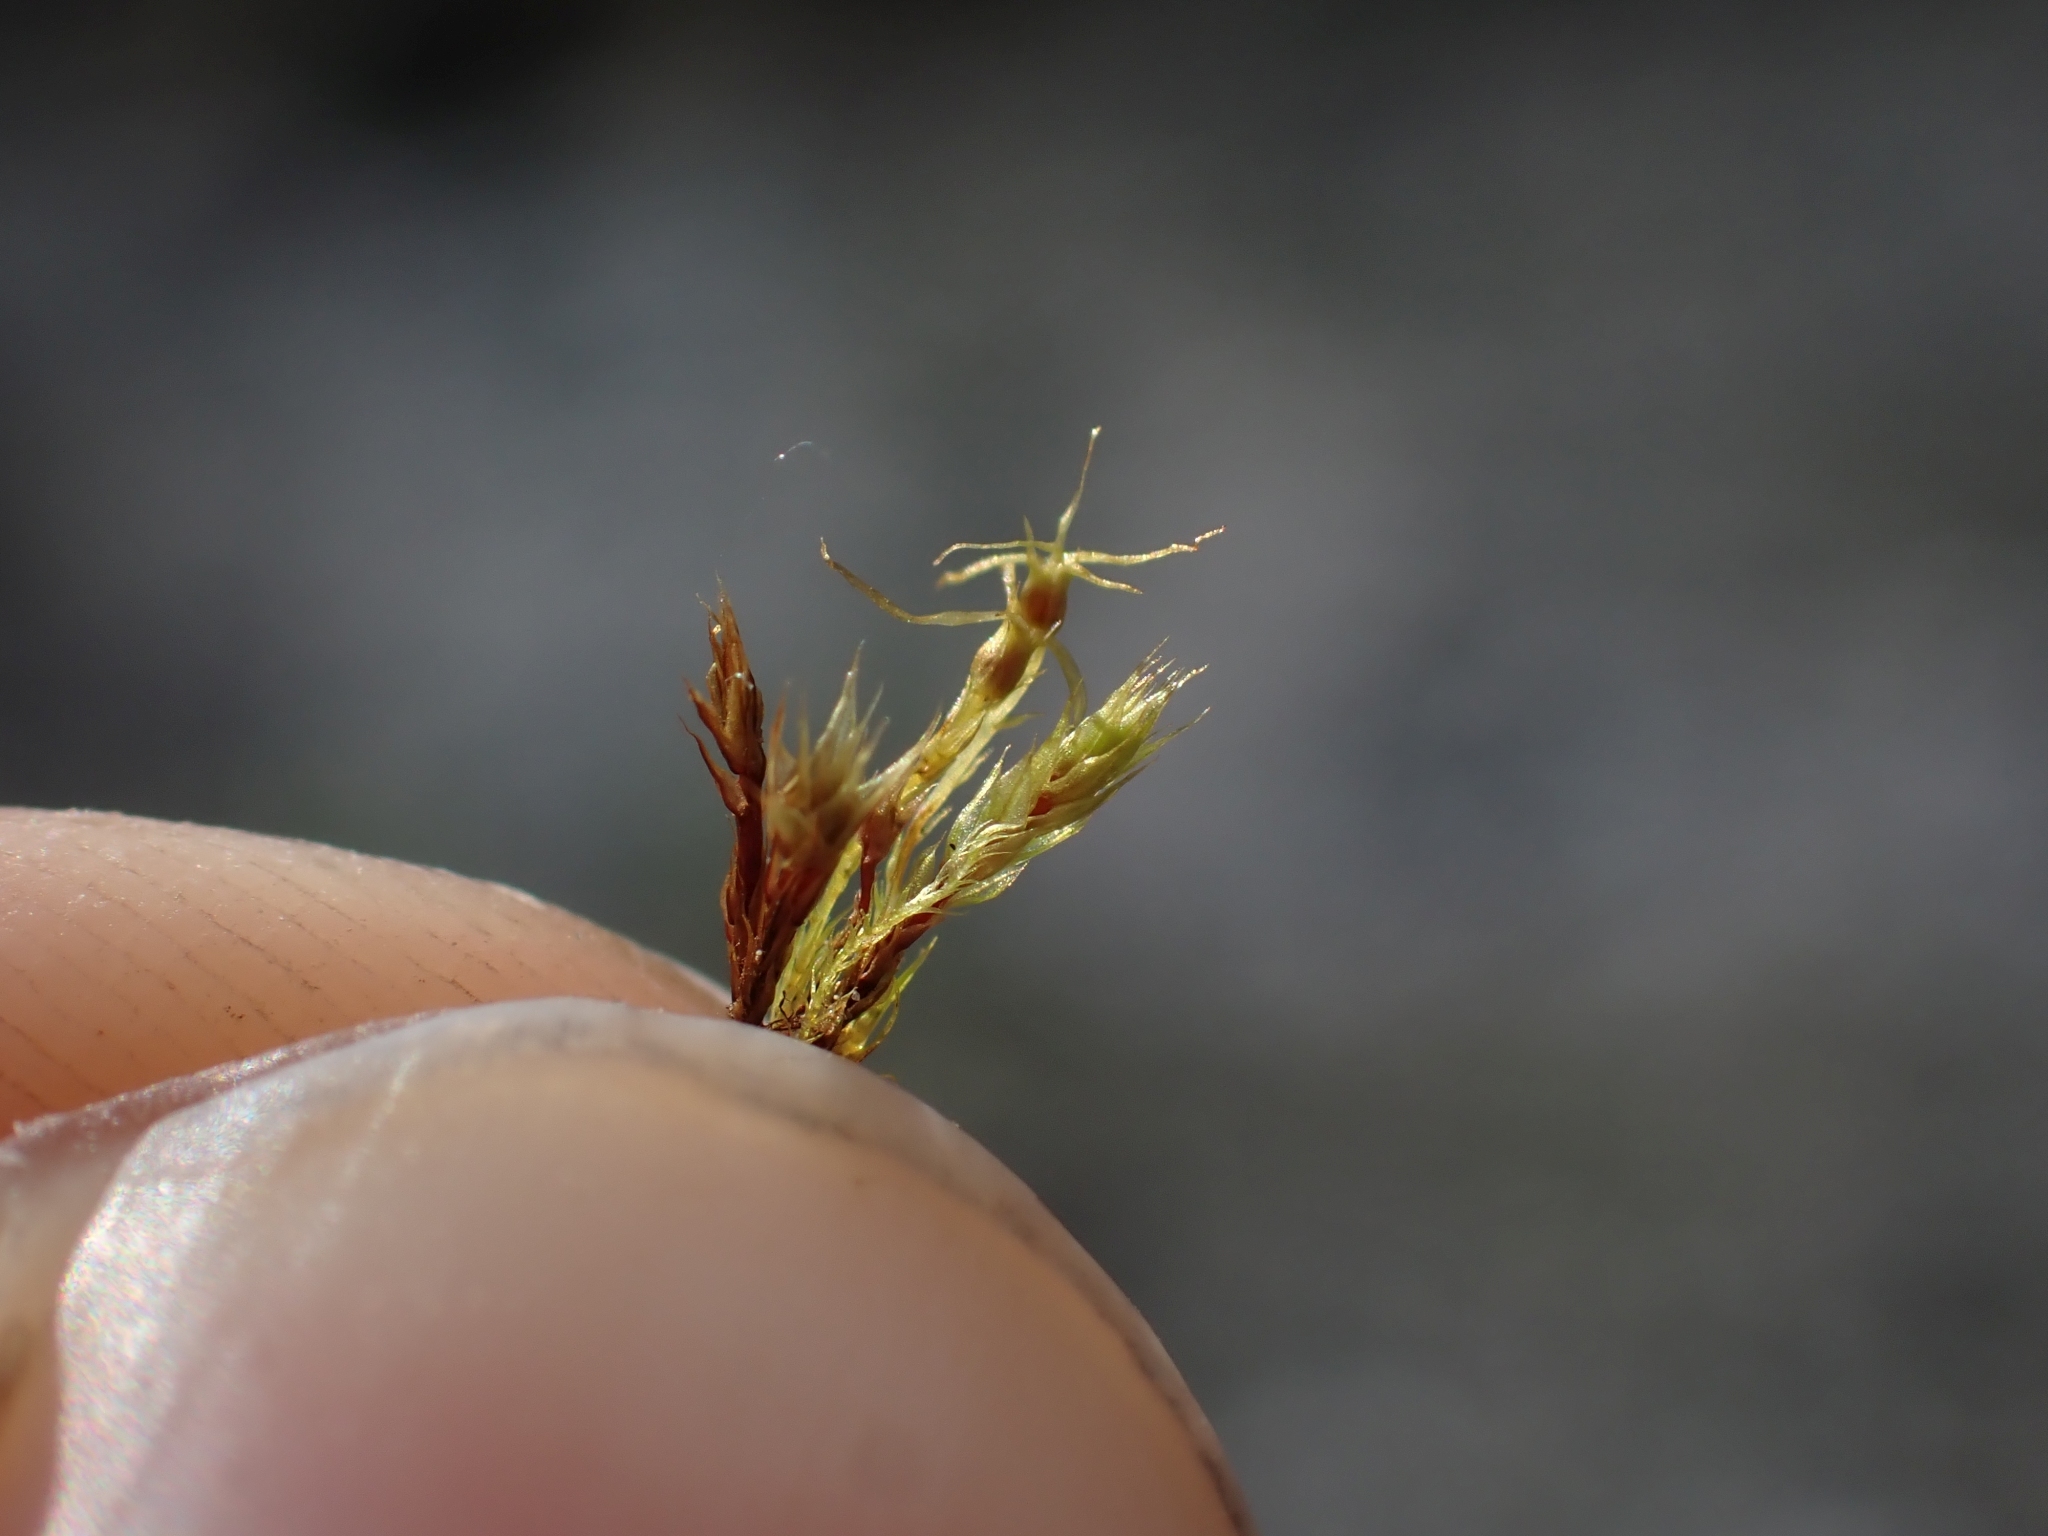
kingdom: Plantae
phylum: Bryophyta
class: Bryopsida
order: Splachnales
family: Meesiaceae
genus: Leptobryum
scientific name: Leptobryum pyriforme
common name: Golden thread moss
